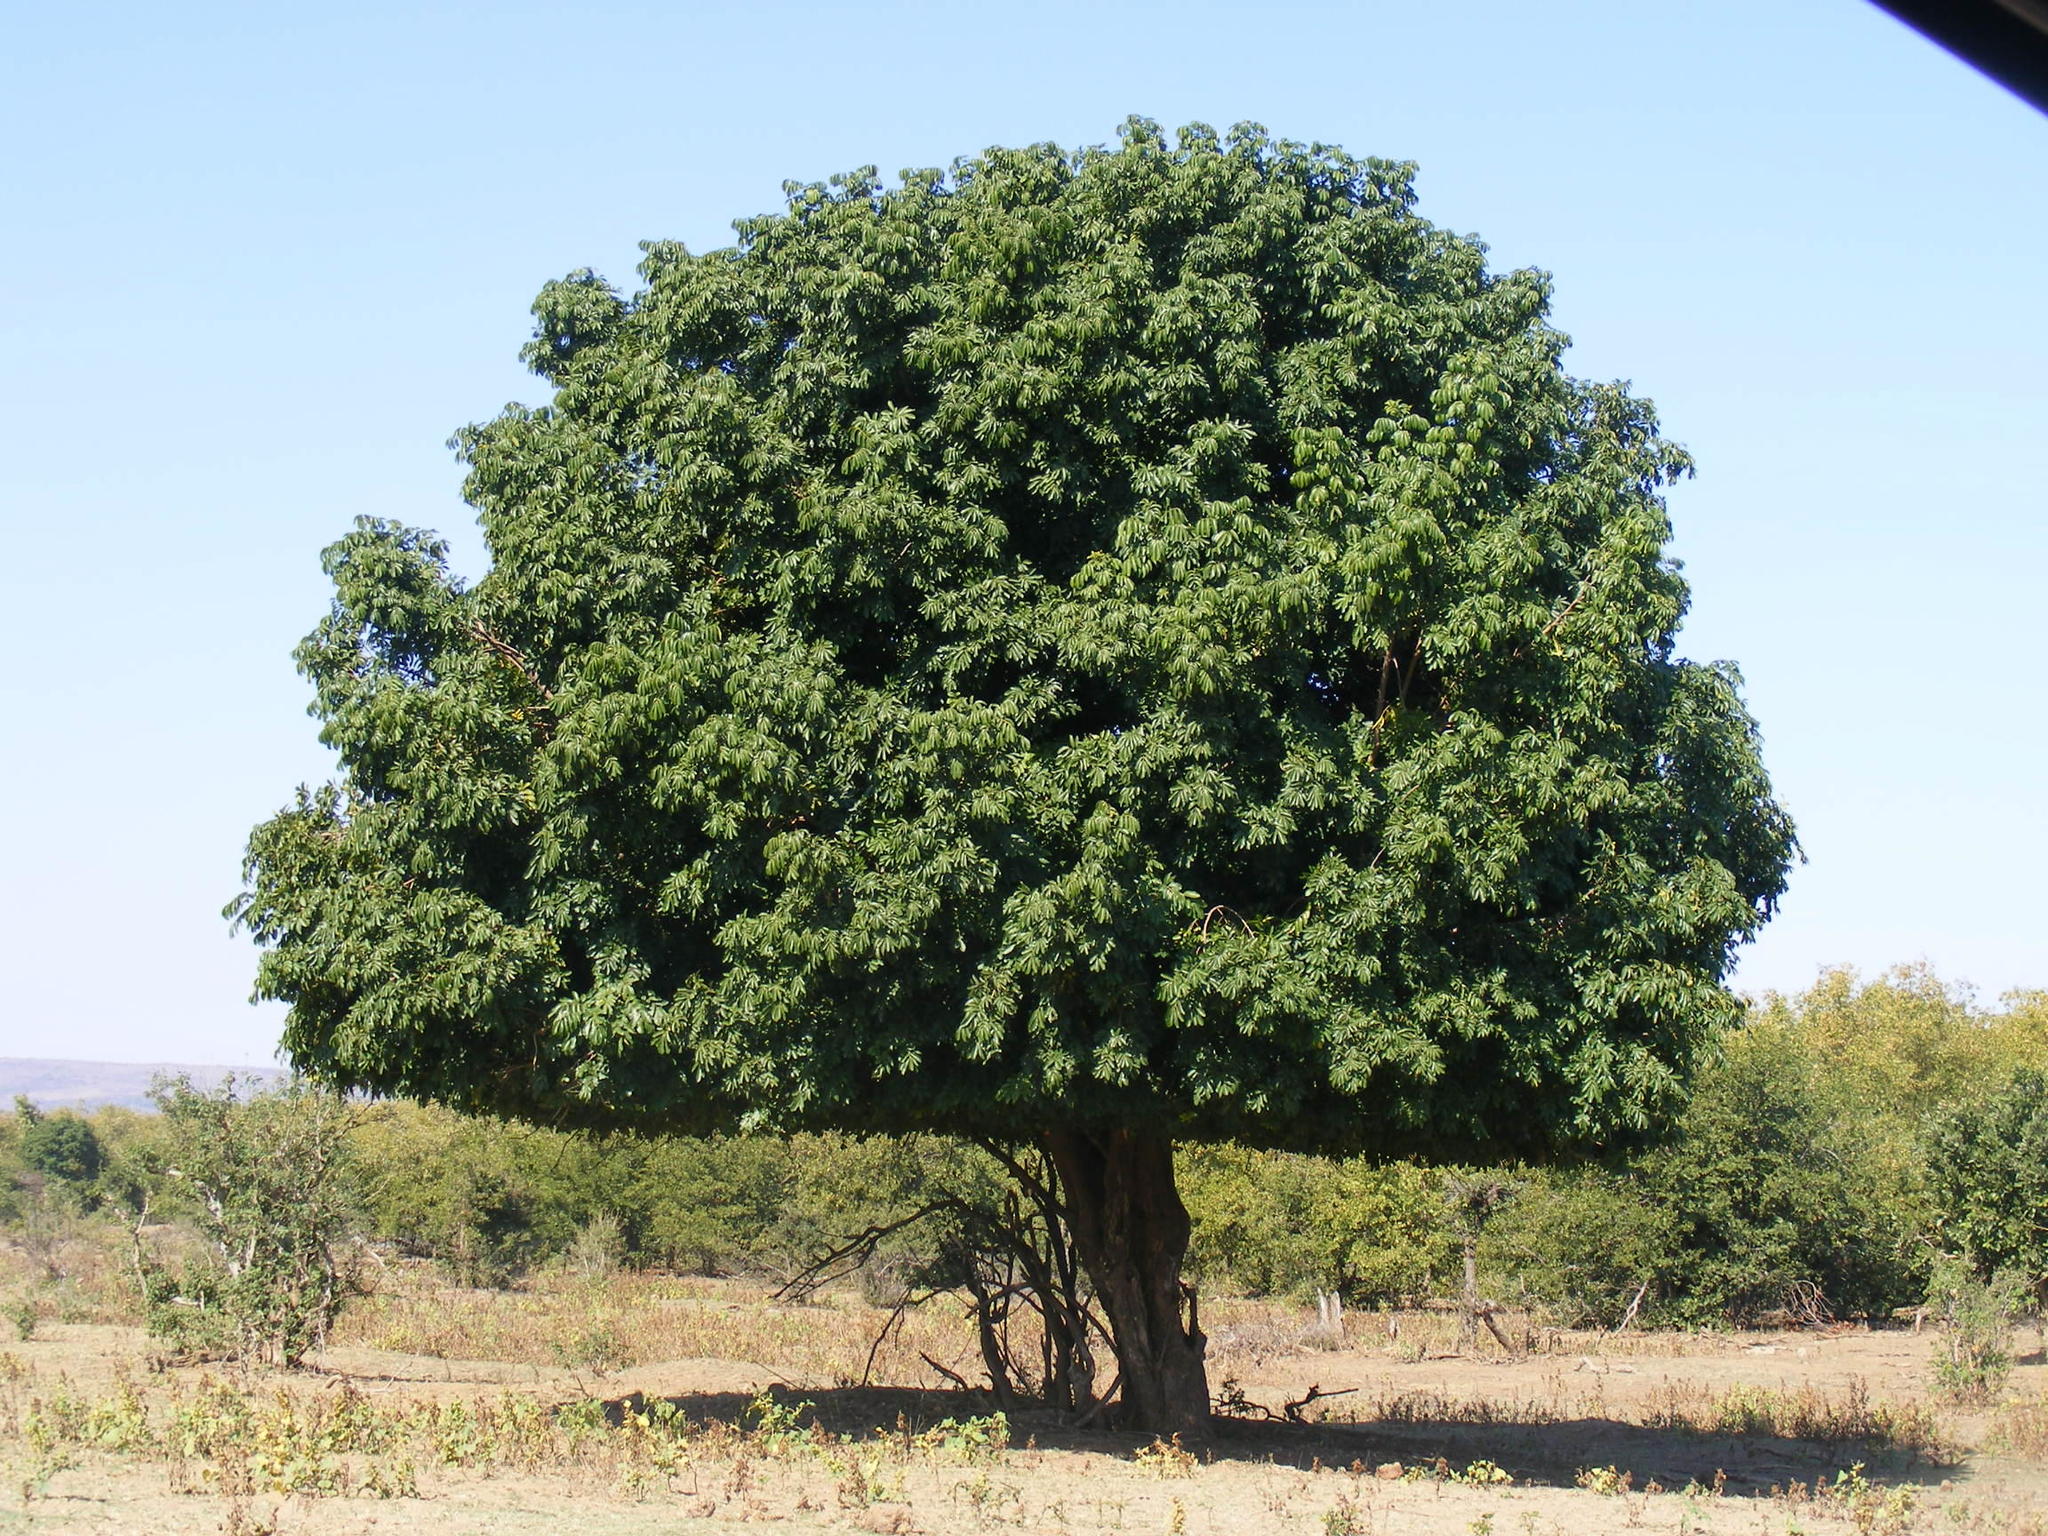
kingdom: Plantae
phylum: Tracheophyta
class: Magnoliopsida
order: Sapindales
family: Meliaceae
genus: Trichilia
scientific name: Trichilia emetica
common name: Christmas-bells
